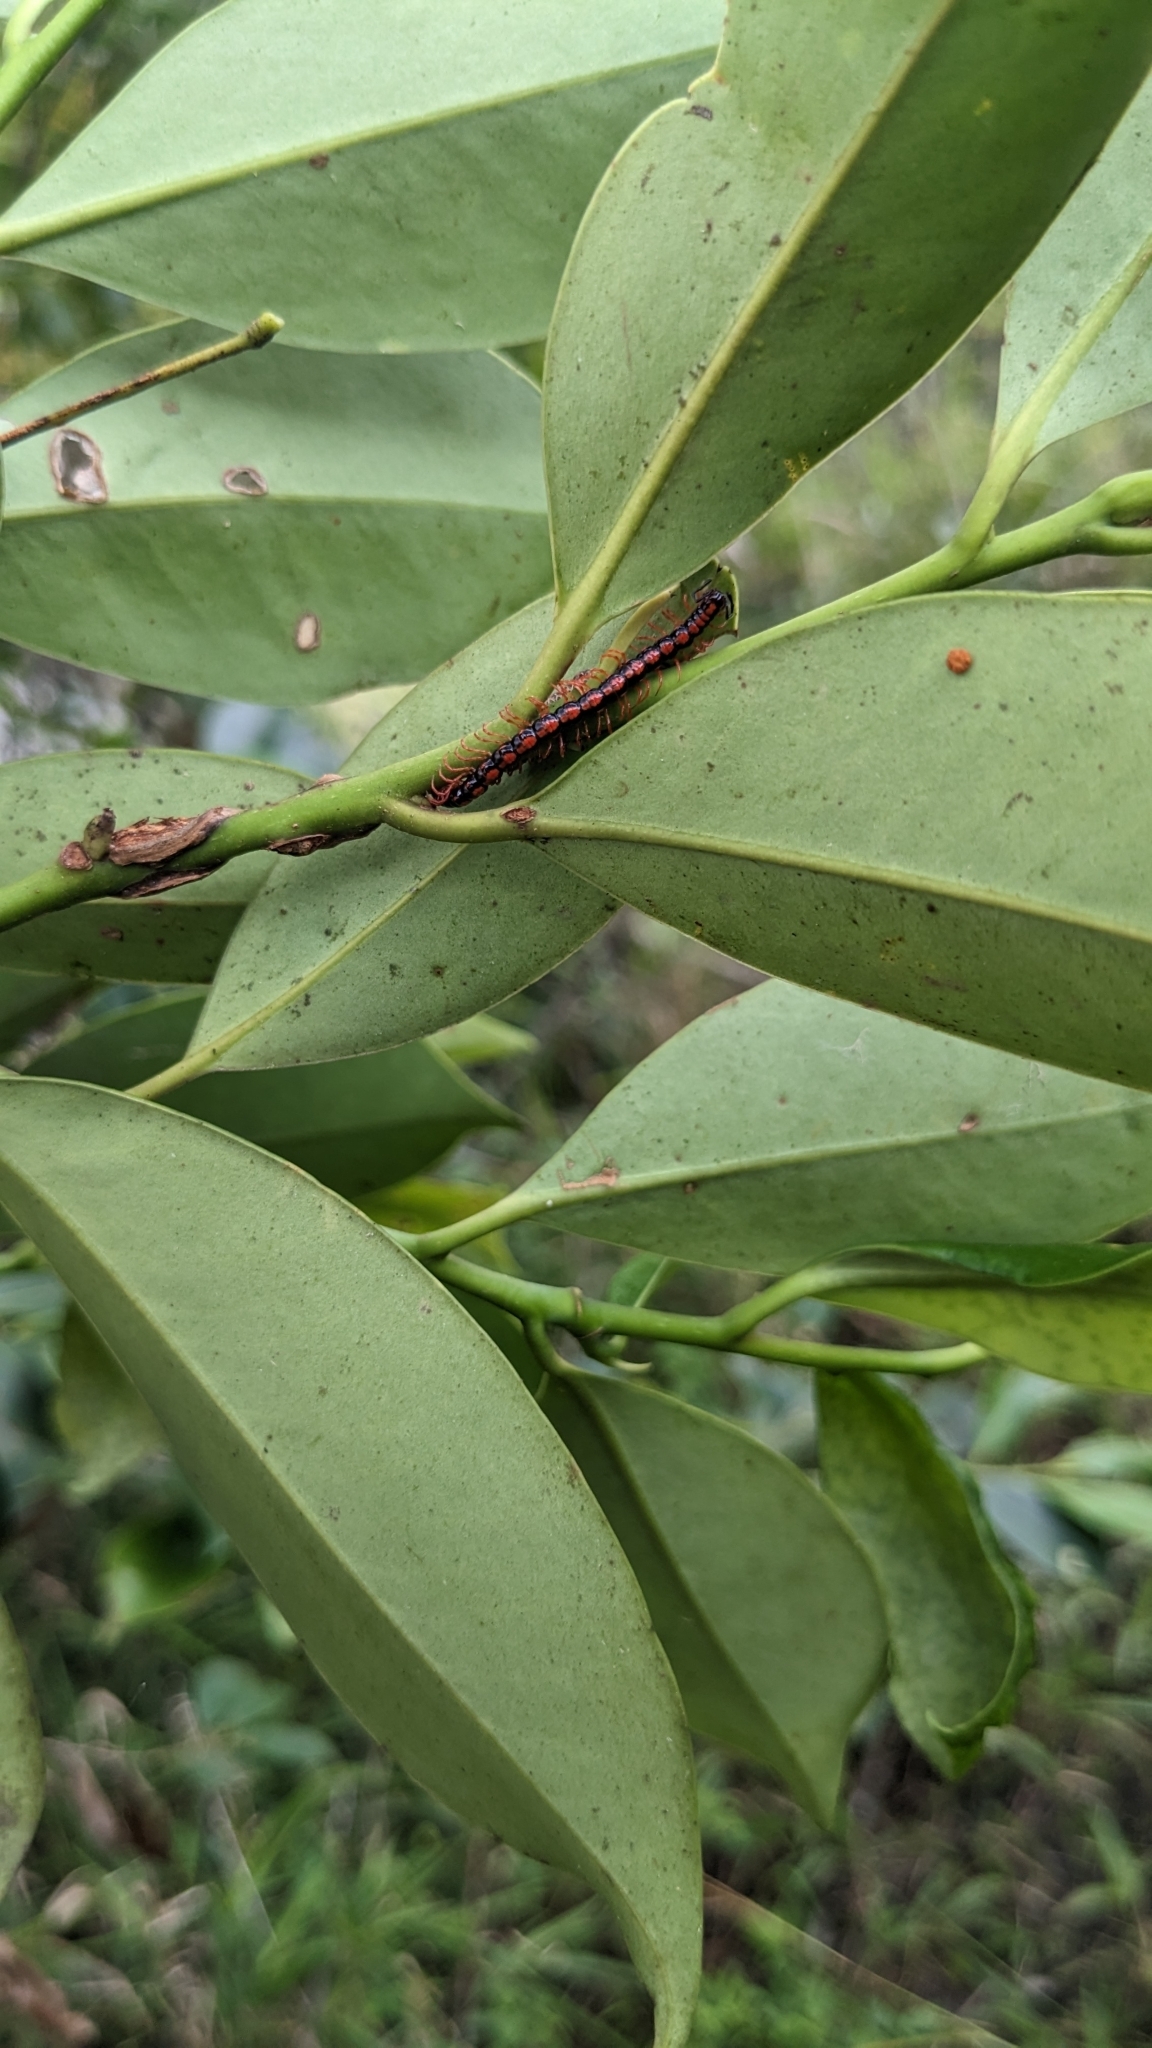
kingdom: Plantae
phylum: Tracheophyta
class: Magnoliopsida
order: Ericales
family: Pentaphylacaceae
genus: Cleyera
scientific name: Cleyera japonica
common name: Sakaki
